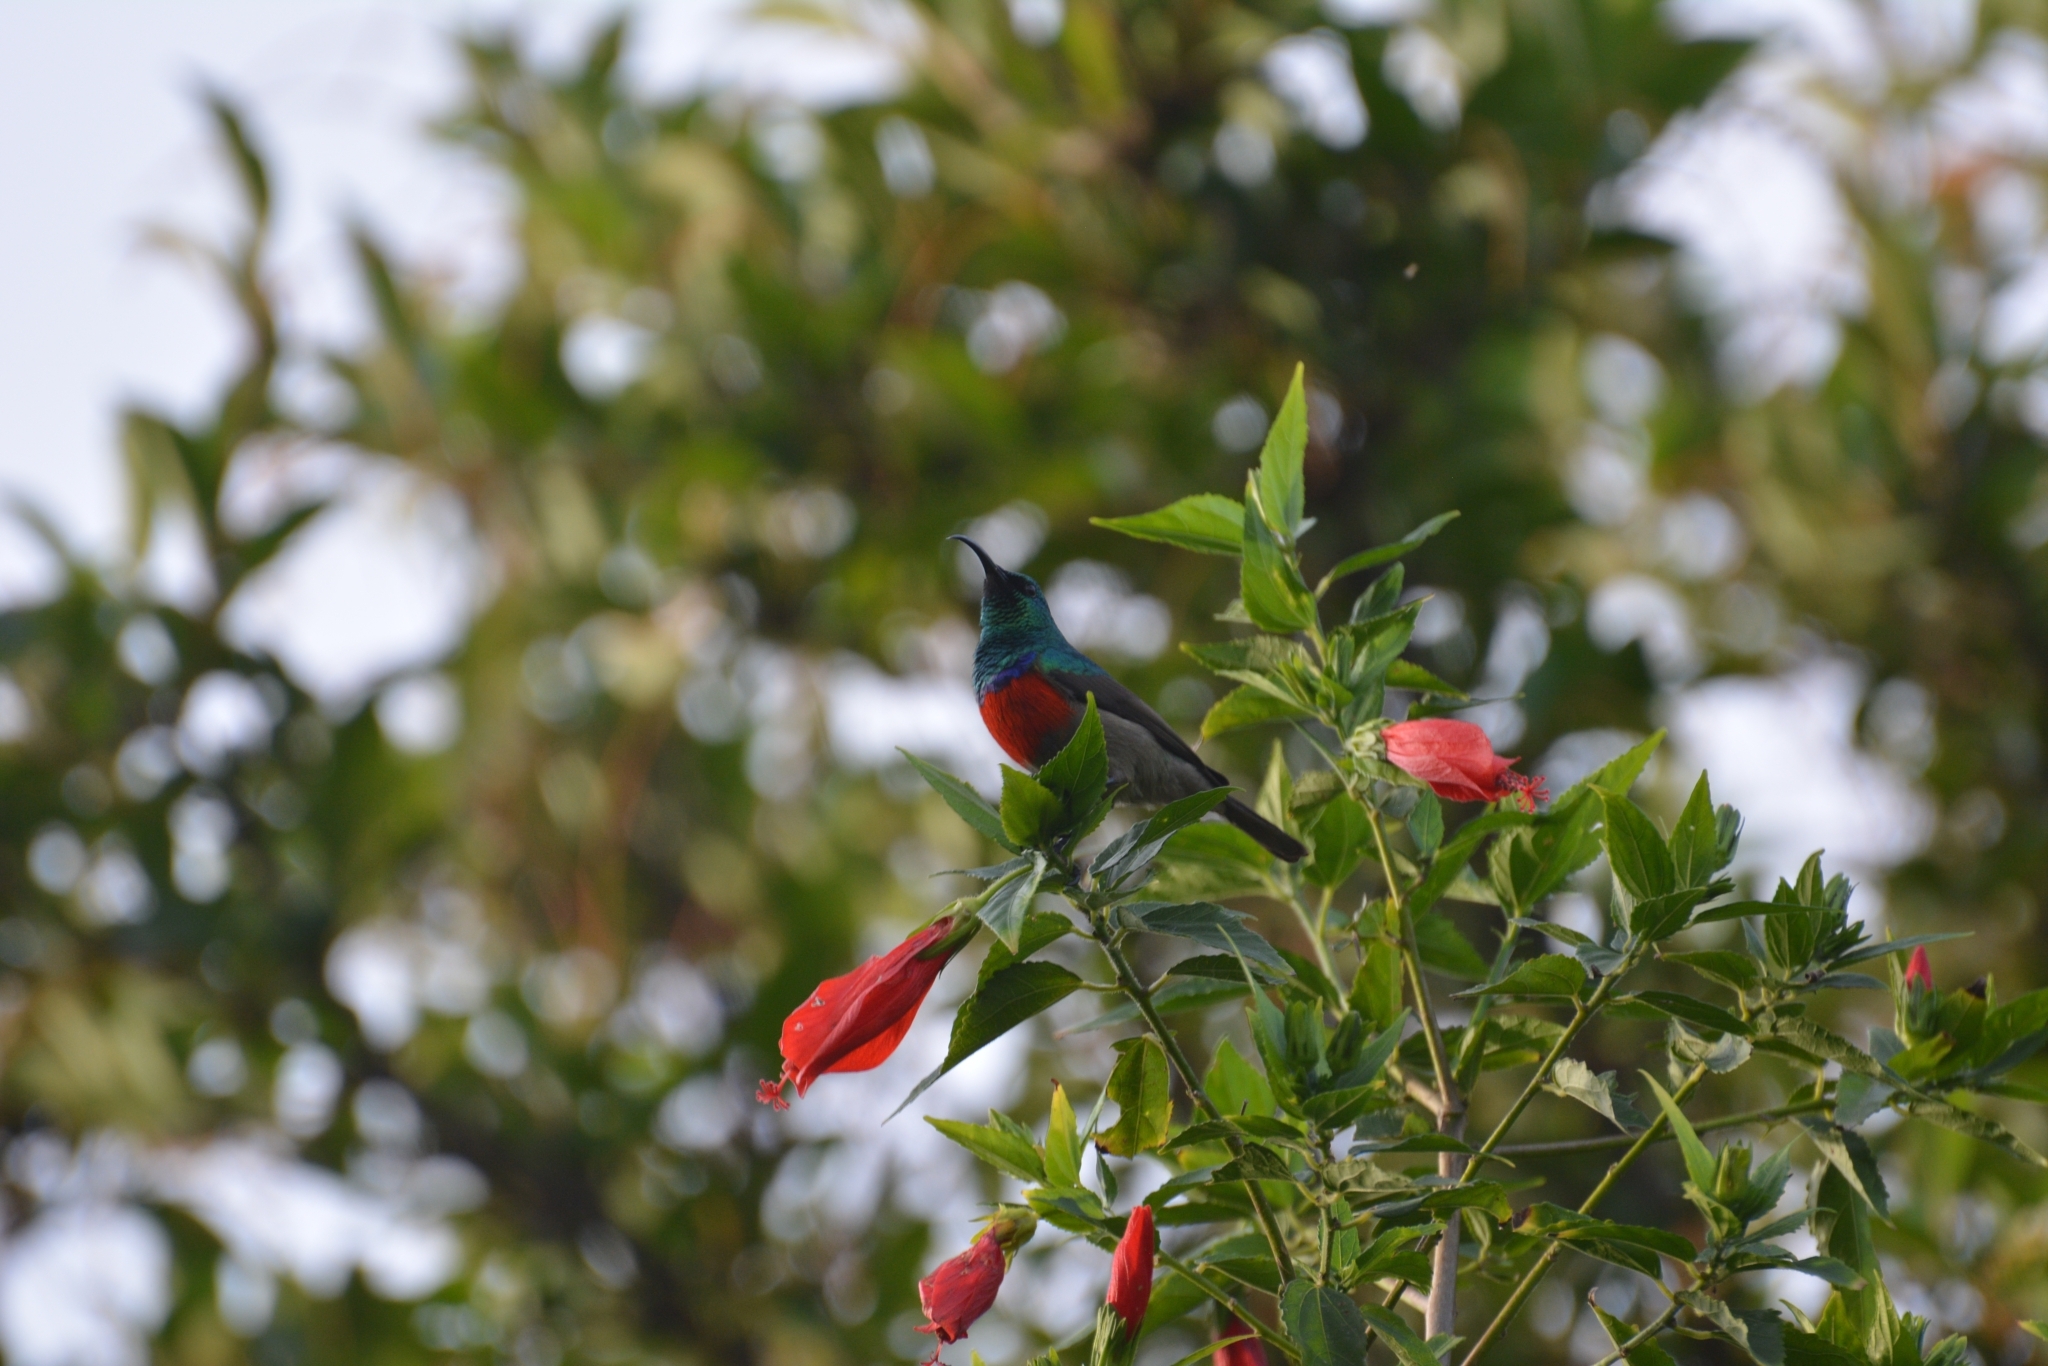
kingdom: Animalia
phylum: Chordata
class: Aves
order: Passeriformes
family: Nectariniidae
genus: Cinnyris
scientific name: Cinnyris afer
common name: Greater double-collared sunbird
